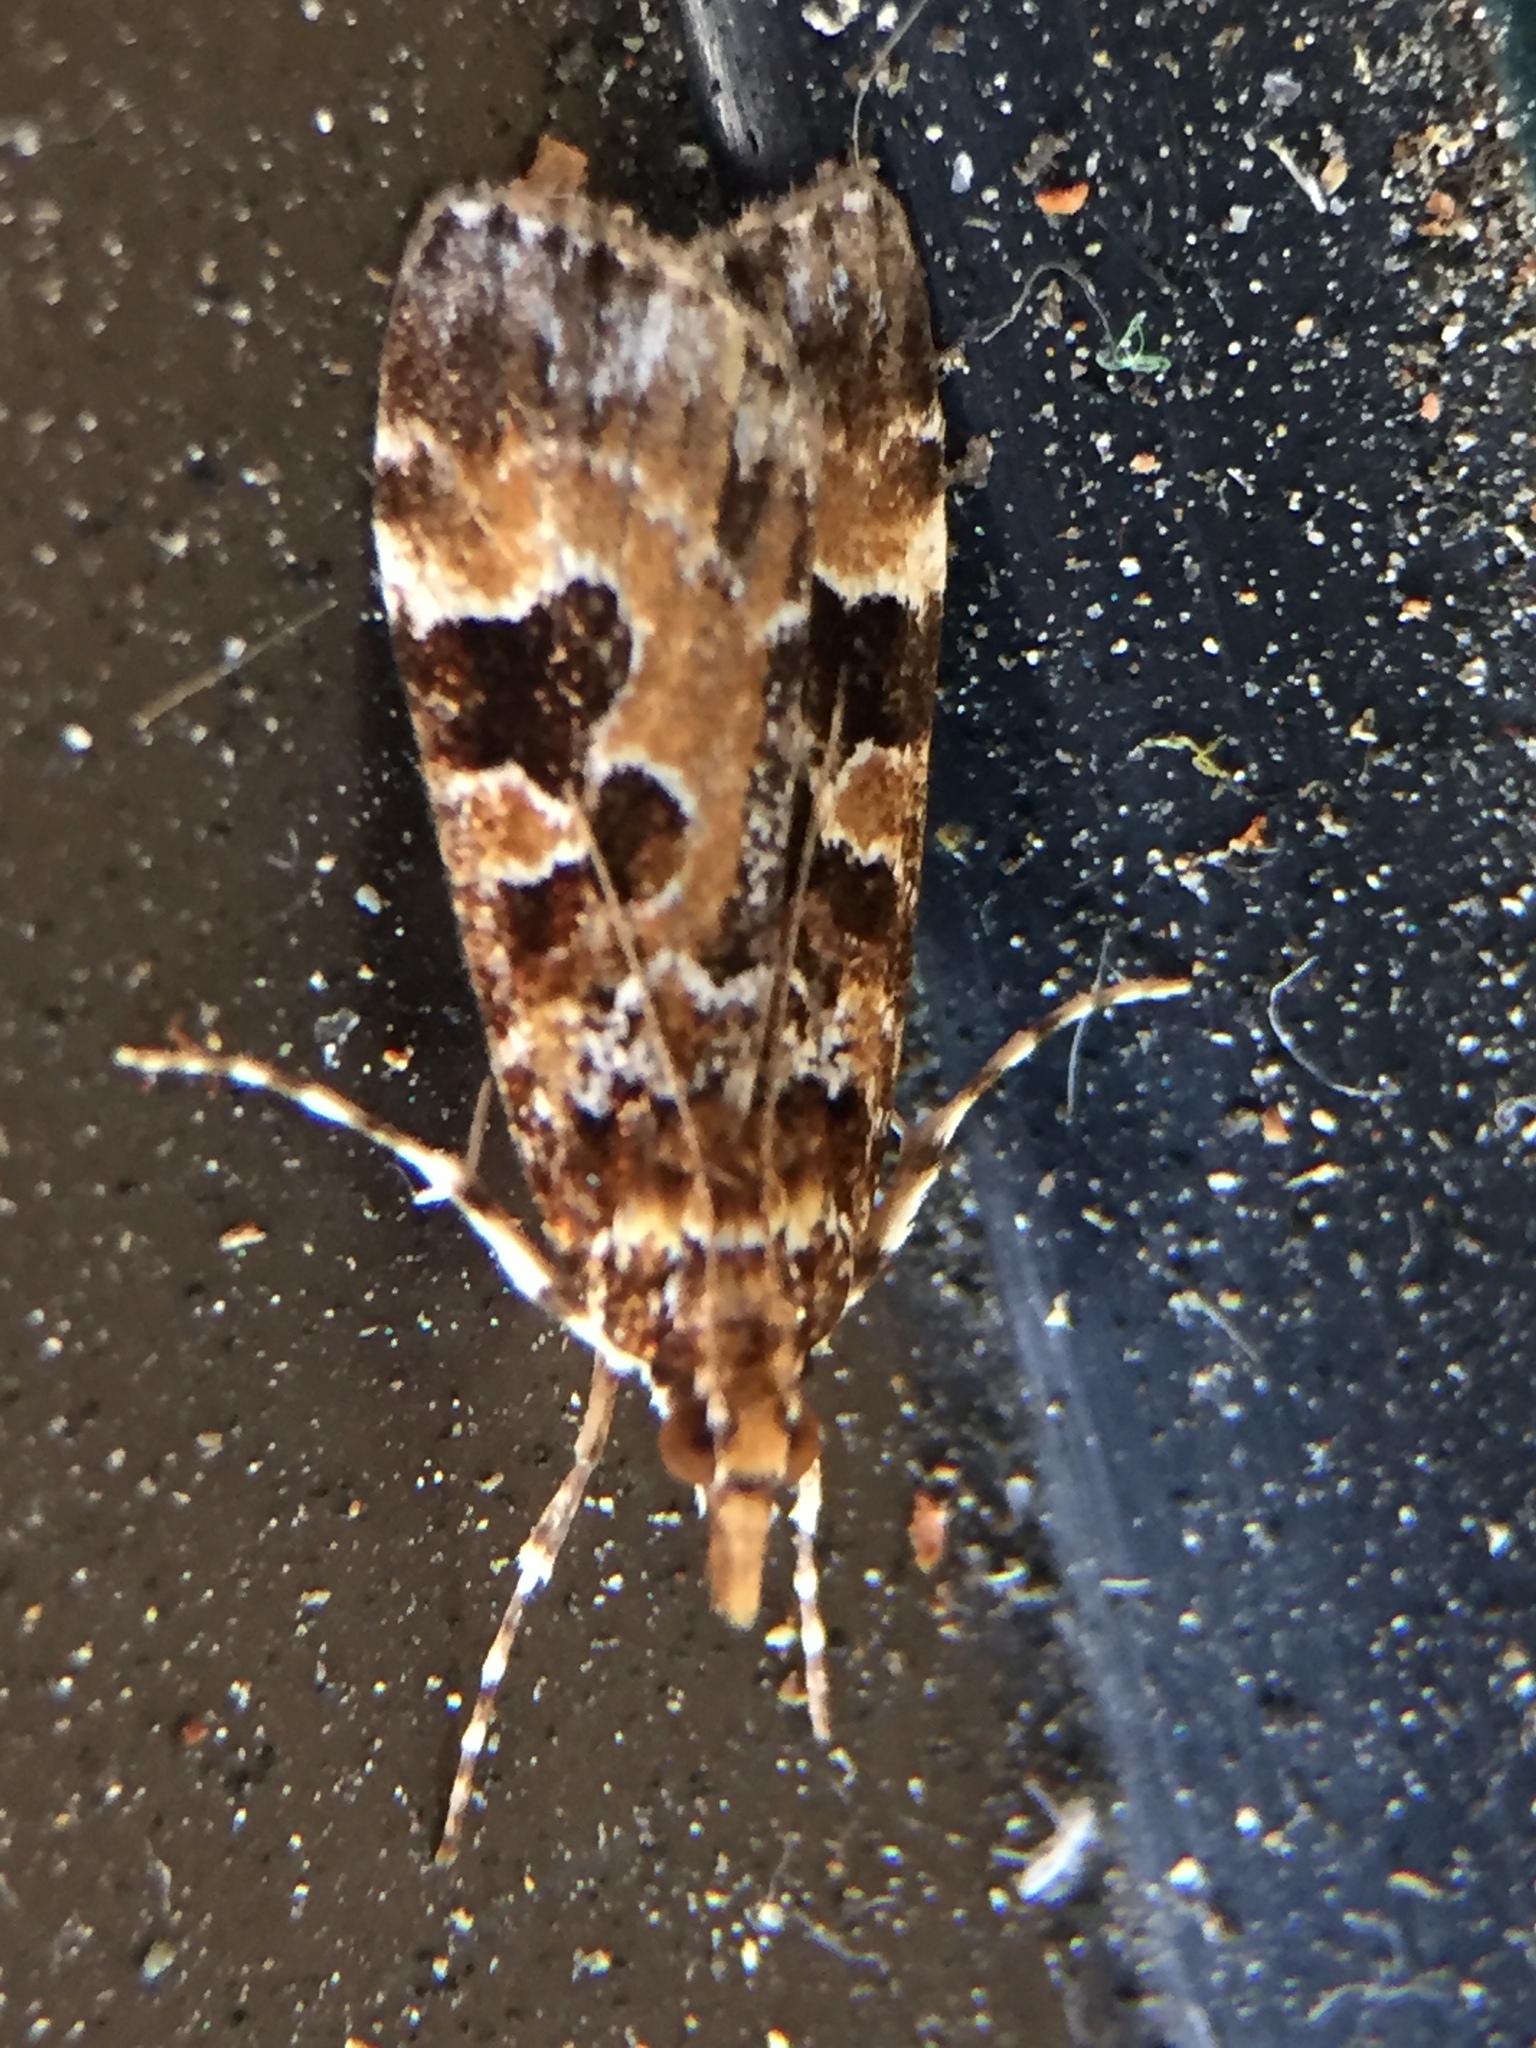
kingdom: Animalia
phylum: Arthropoda
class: Insecta
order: Lepidoptera
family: Crambidae
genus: Scoparia
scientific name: Scoparia ustimacula
